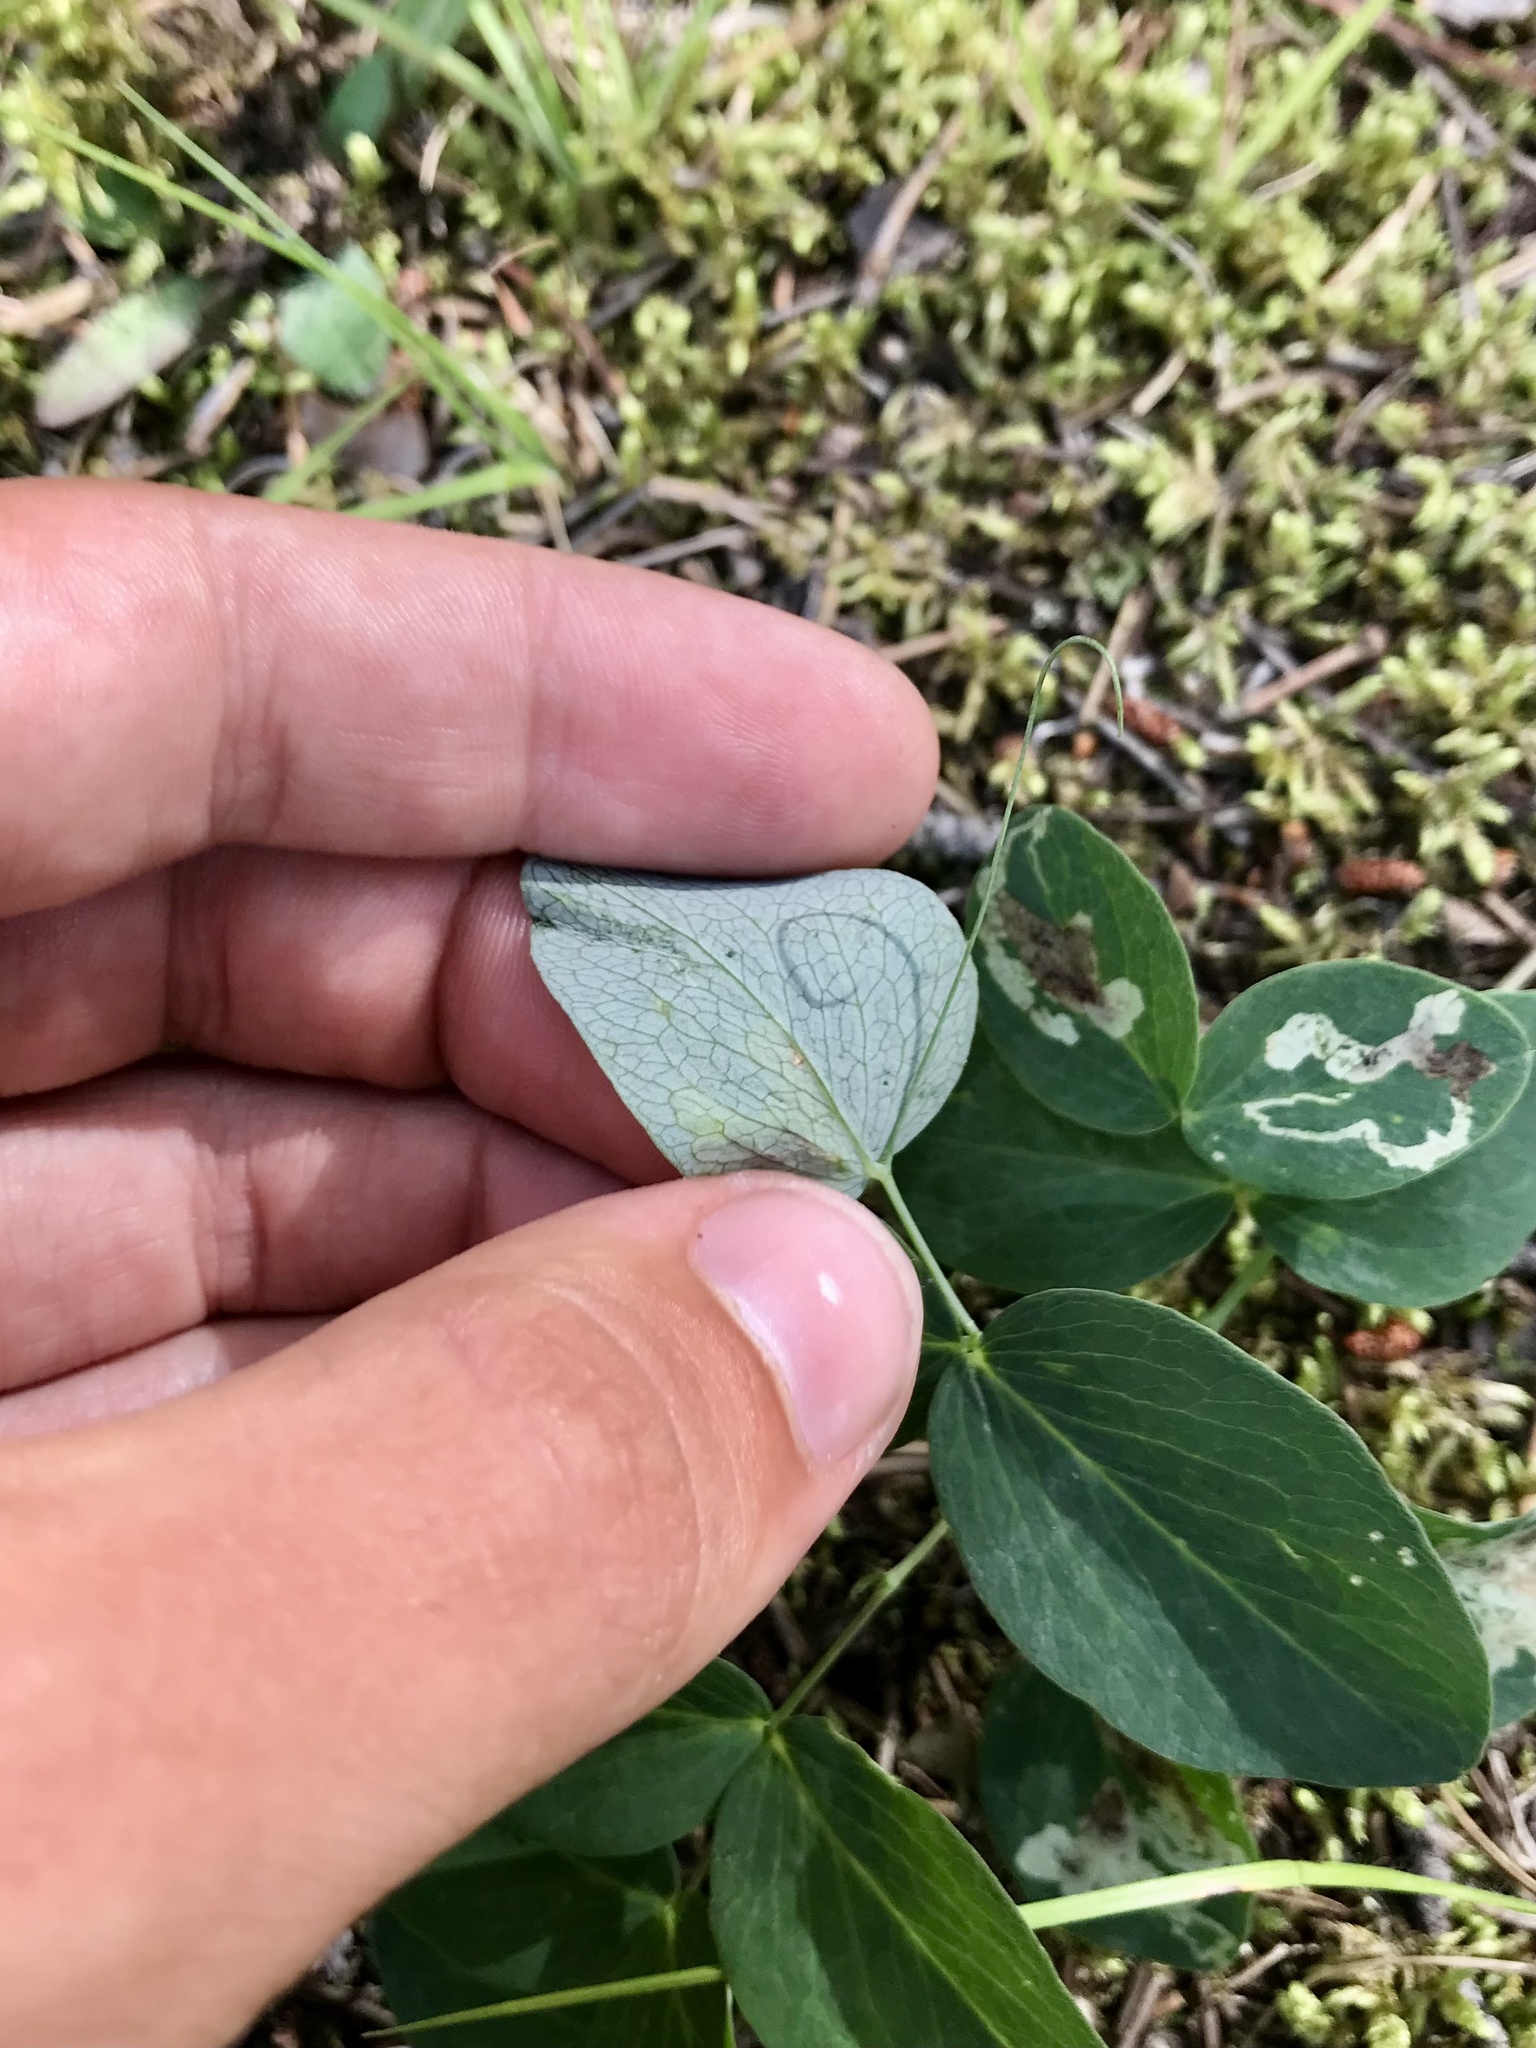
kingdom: Animalia
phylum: Arthropoda
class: Insecta
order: Diptera
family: Agromyzidae
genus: Liriomyza
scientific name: Liriomyza fricki
